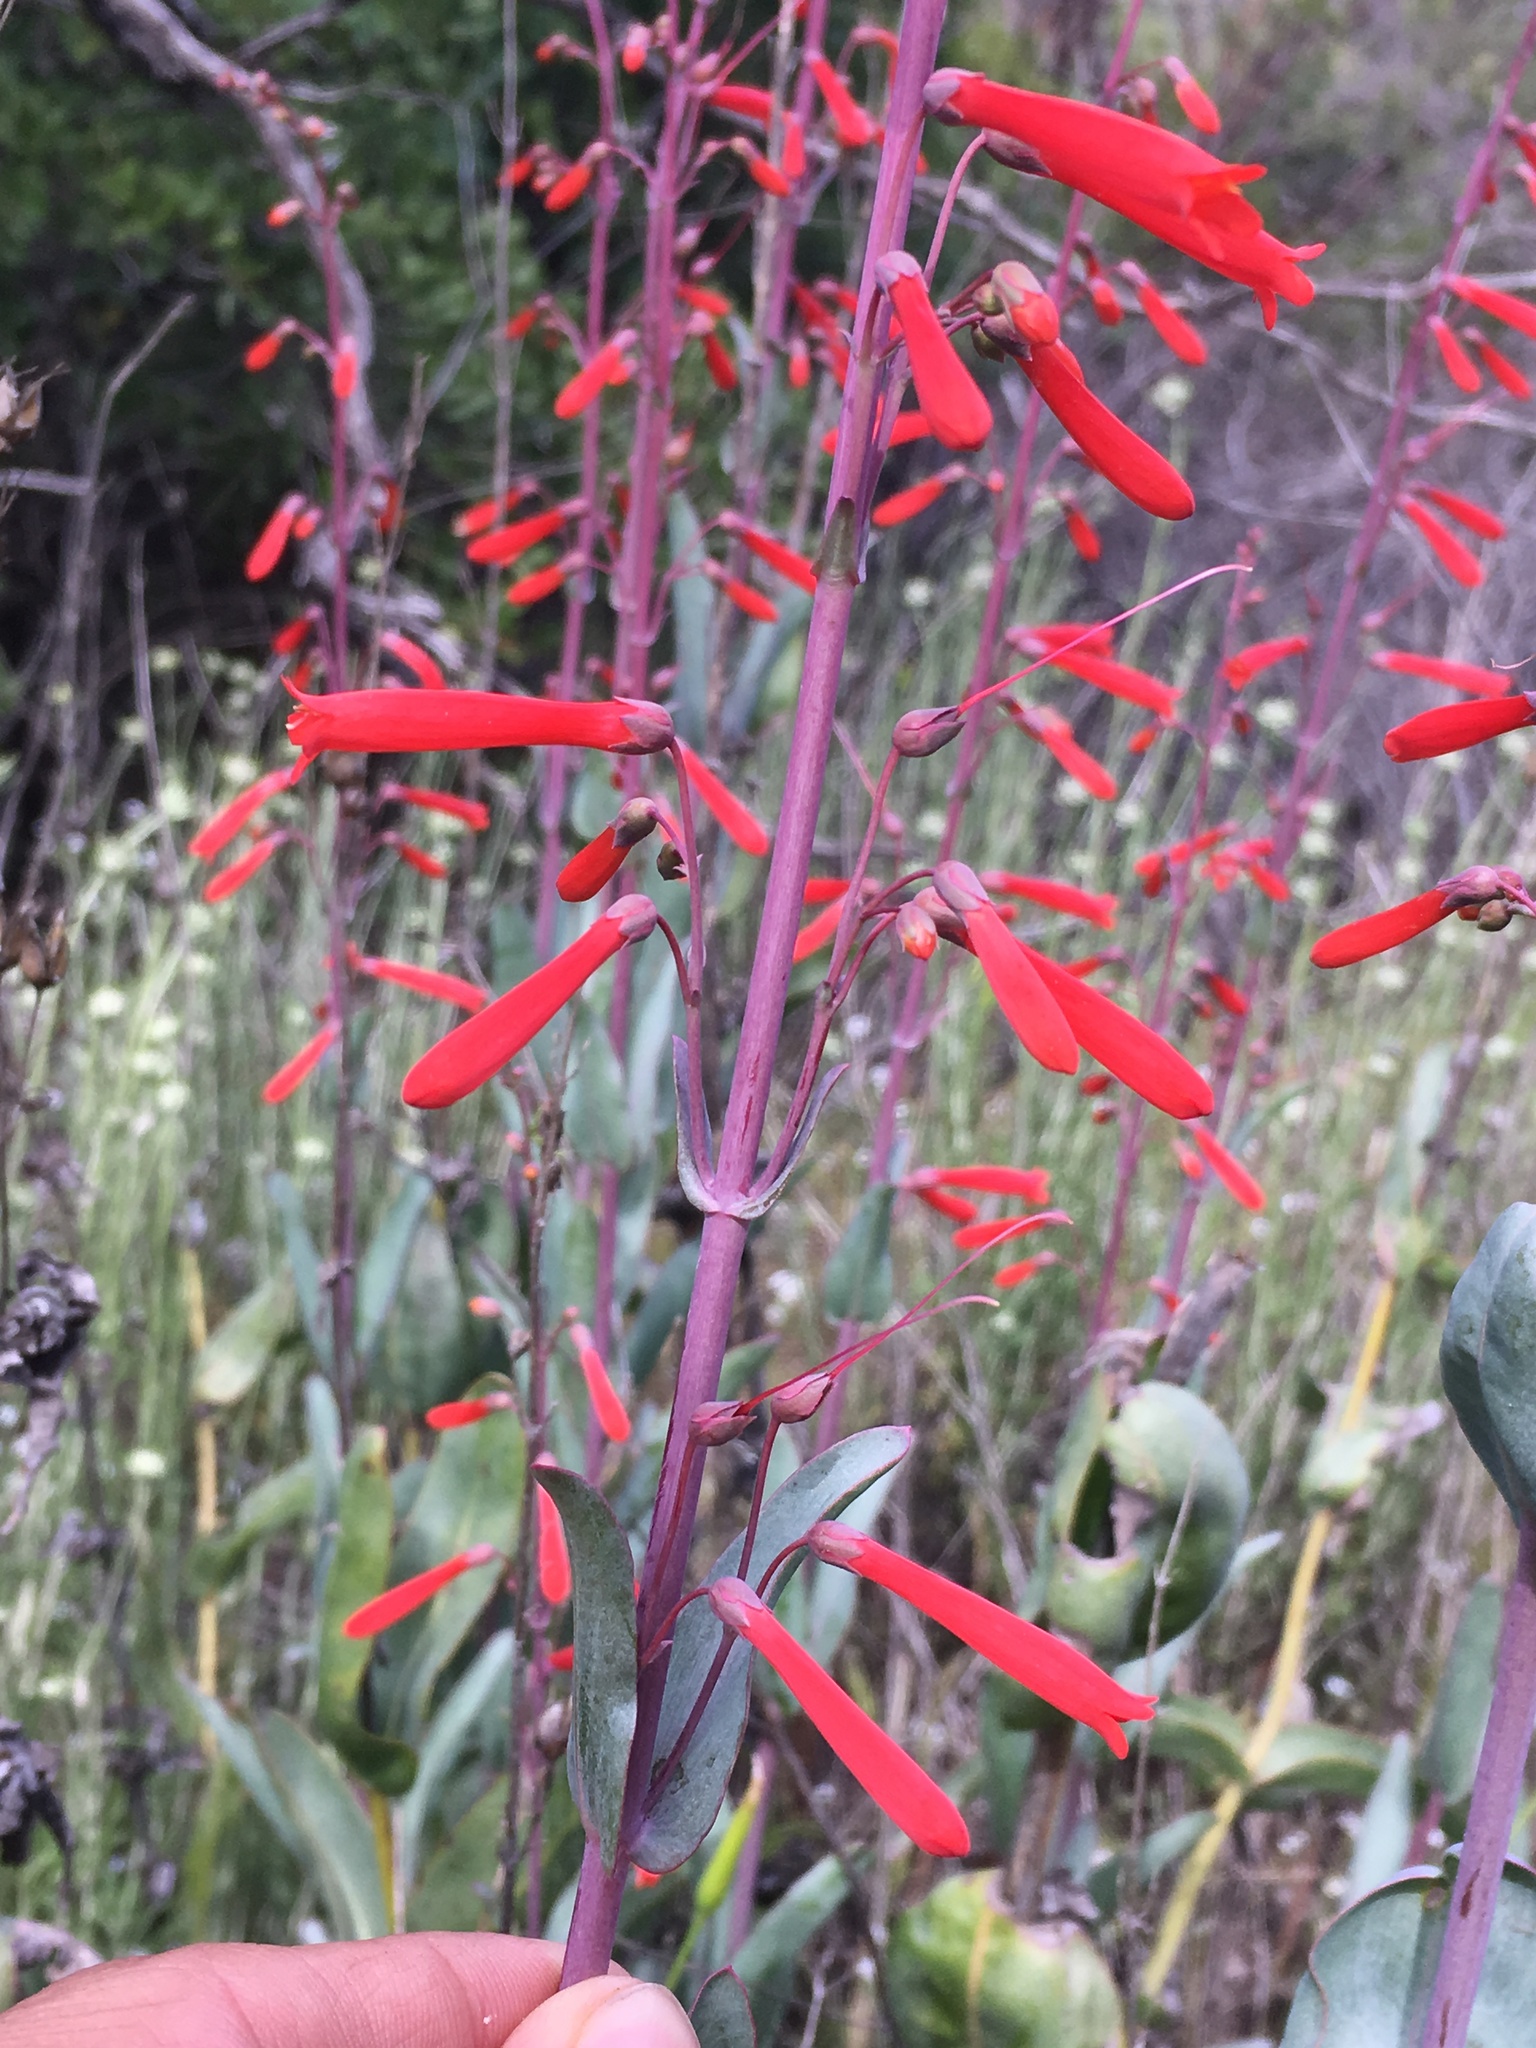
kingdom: Plantae
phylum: Tracheophyta
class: Magnoliopsida
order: Lamiales
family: Plantaginaceae
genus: Penstemon
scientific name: Penstemon centranthifolius
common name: Scarlet bugler
